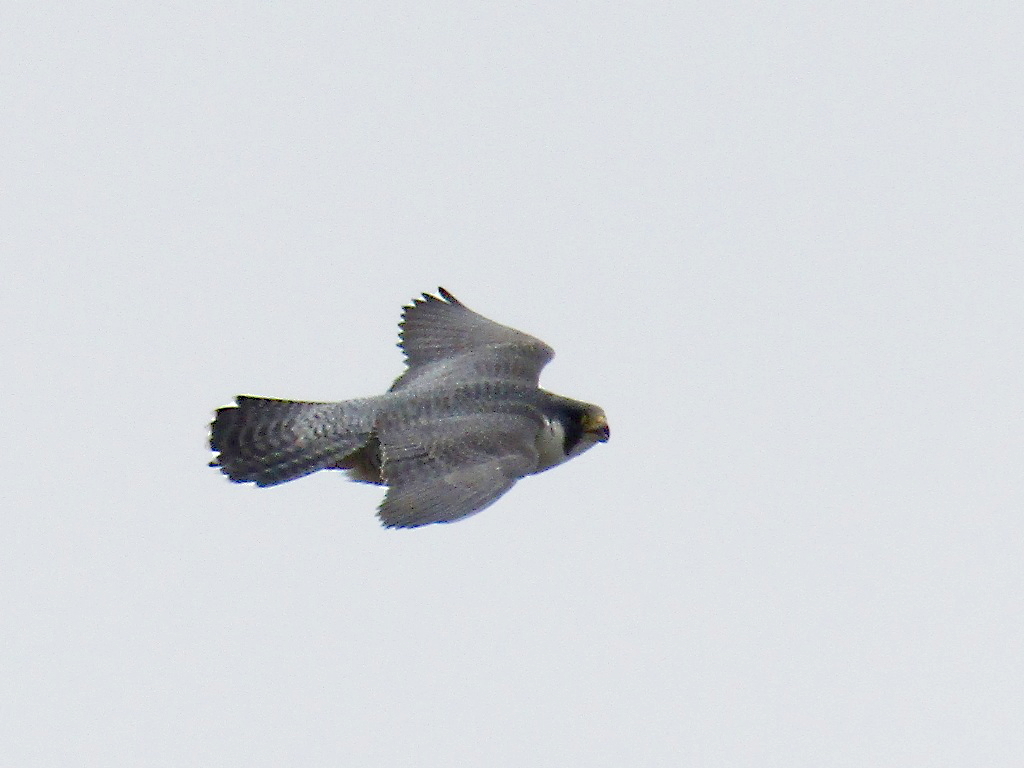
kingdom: Animalia
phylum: Chordata
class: Aves
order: Falconiformes
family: Falconidae
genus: Falco
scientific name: Falco peregrinus
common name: Peregrine falcon
